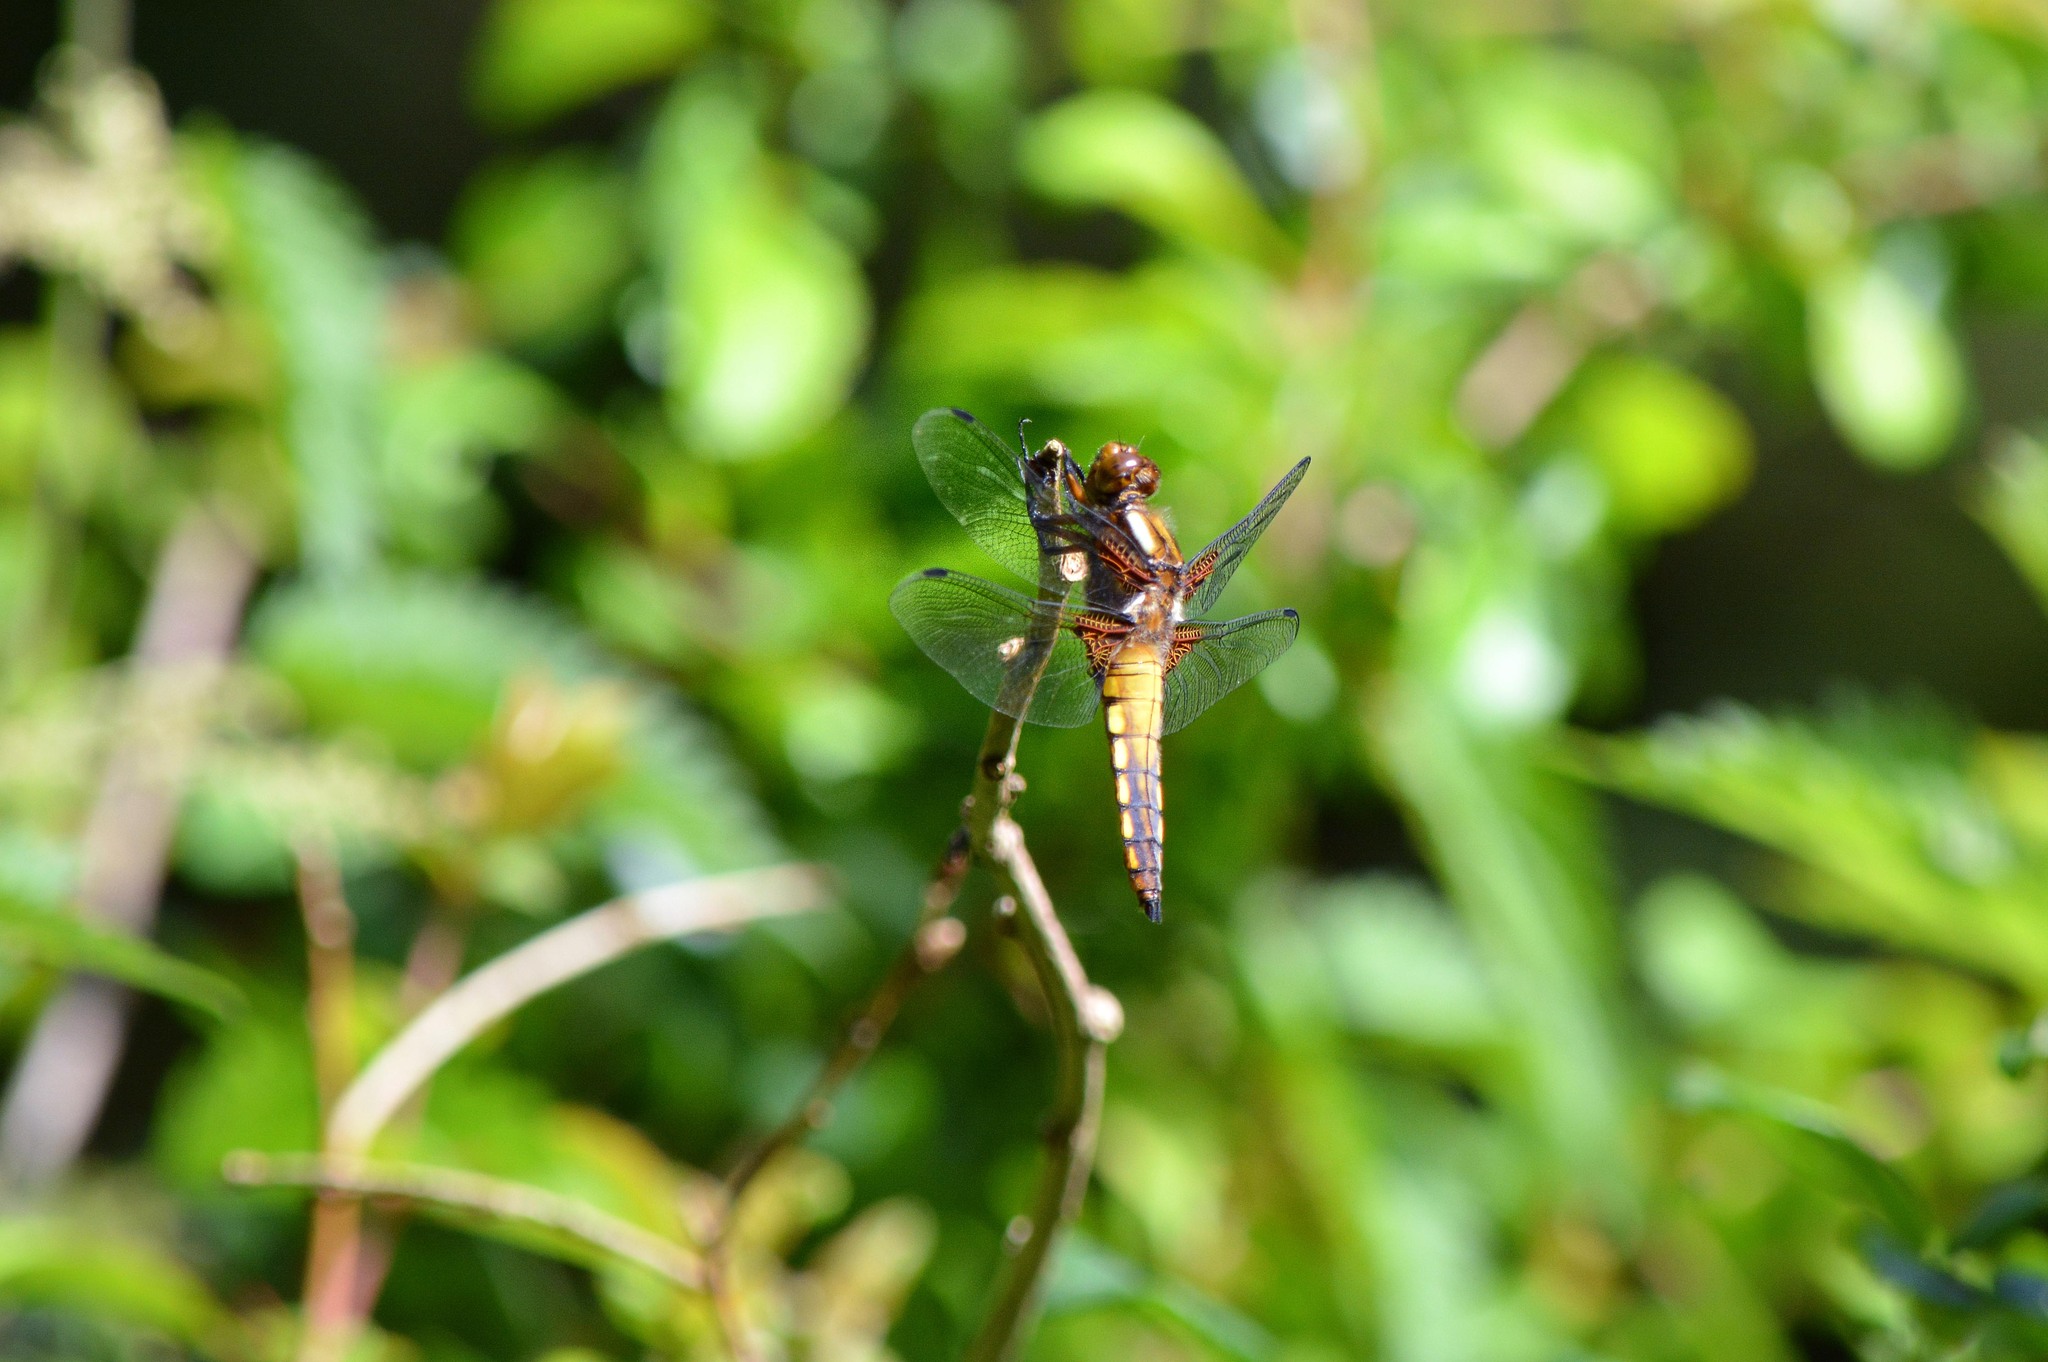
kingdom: Animalia
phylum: Arthropoda
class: Insecta
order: Odonata
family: Libellulidae
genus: Libellula
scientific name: Libellula depressa
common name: Broad-bodied chaser
